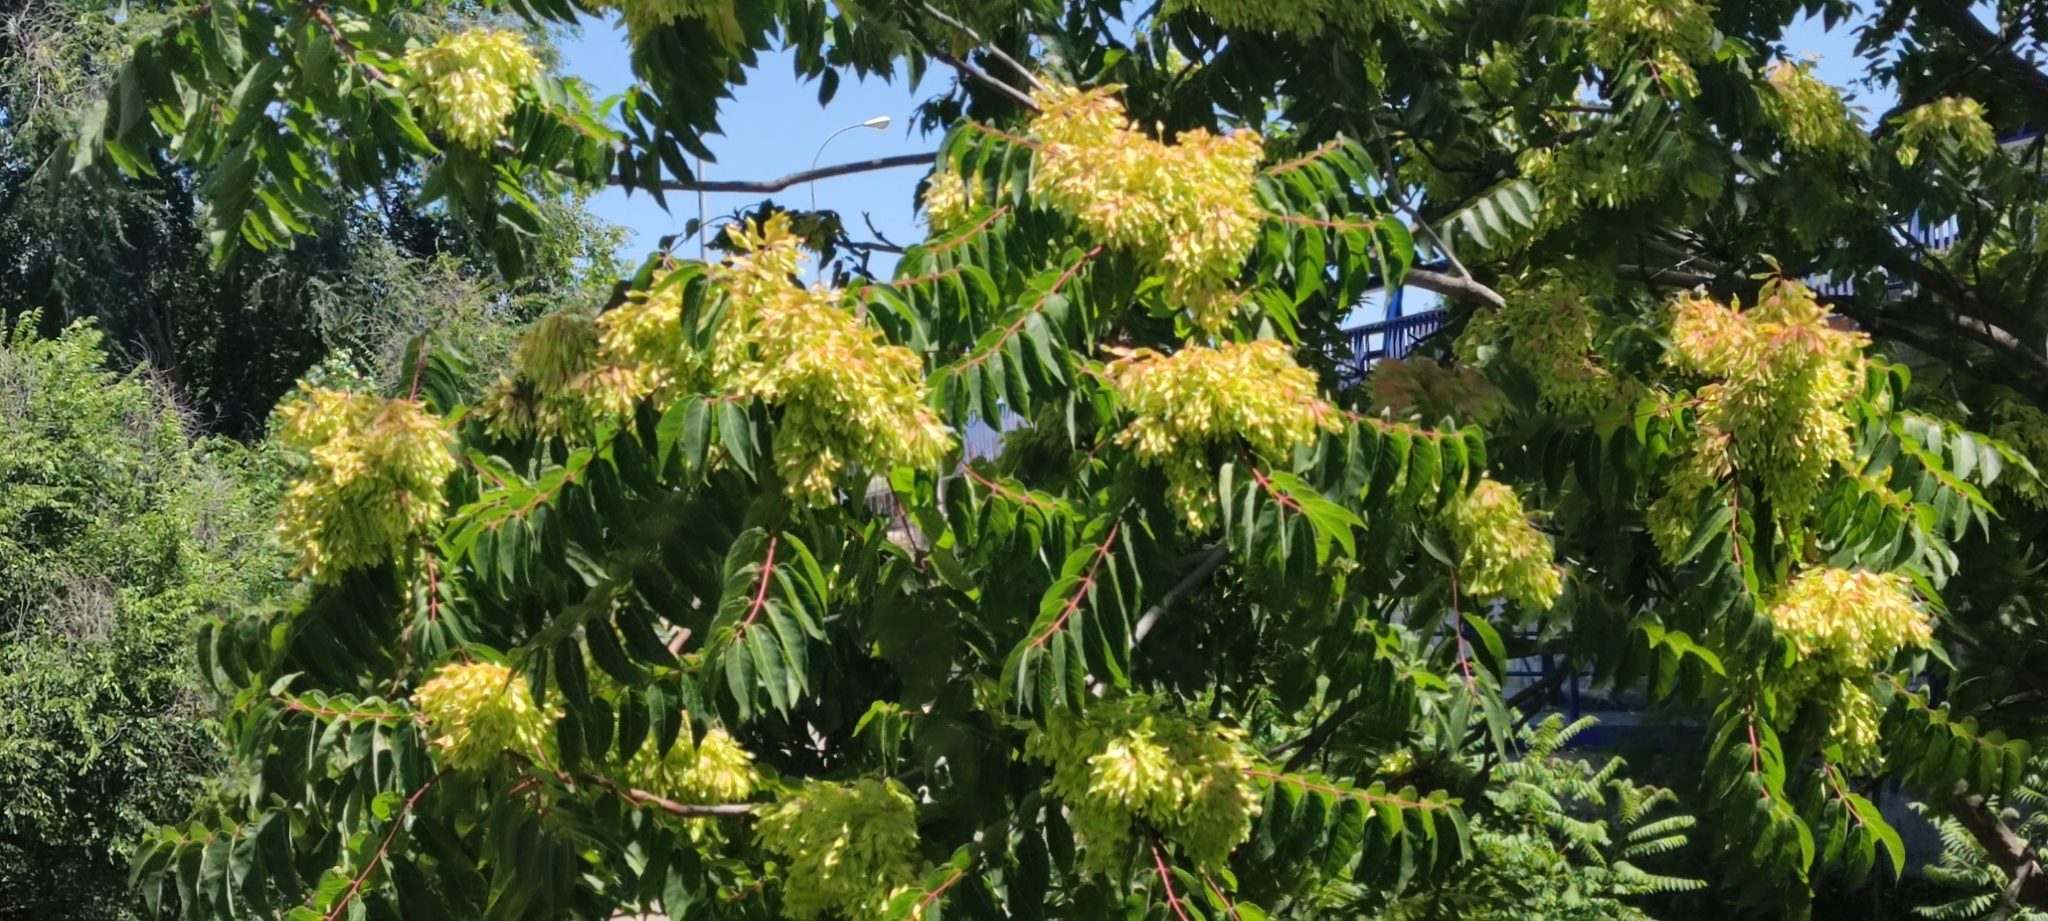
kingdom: Plantae
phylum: Tracheophyta
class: Magnoliopsida
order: Sapindales
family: Simaroubaceae
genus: Ailanthus
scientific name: Ailanthus altissima
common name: Tree-of-heaven
